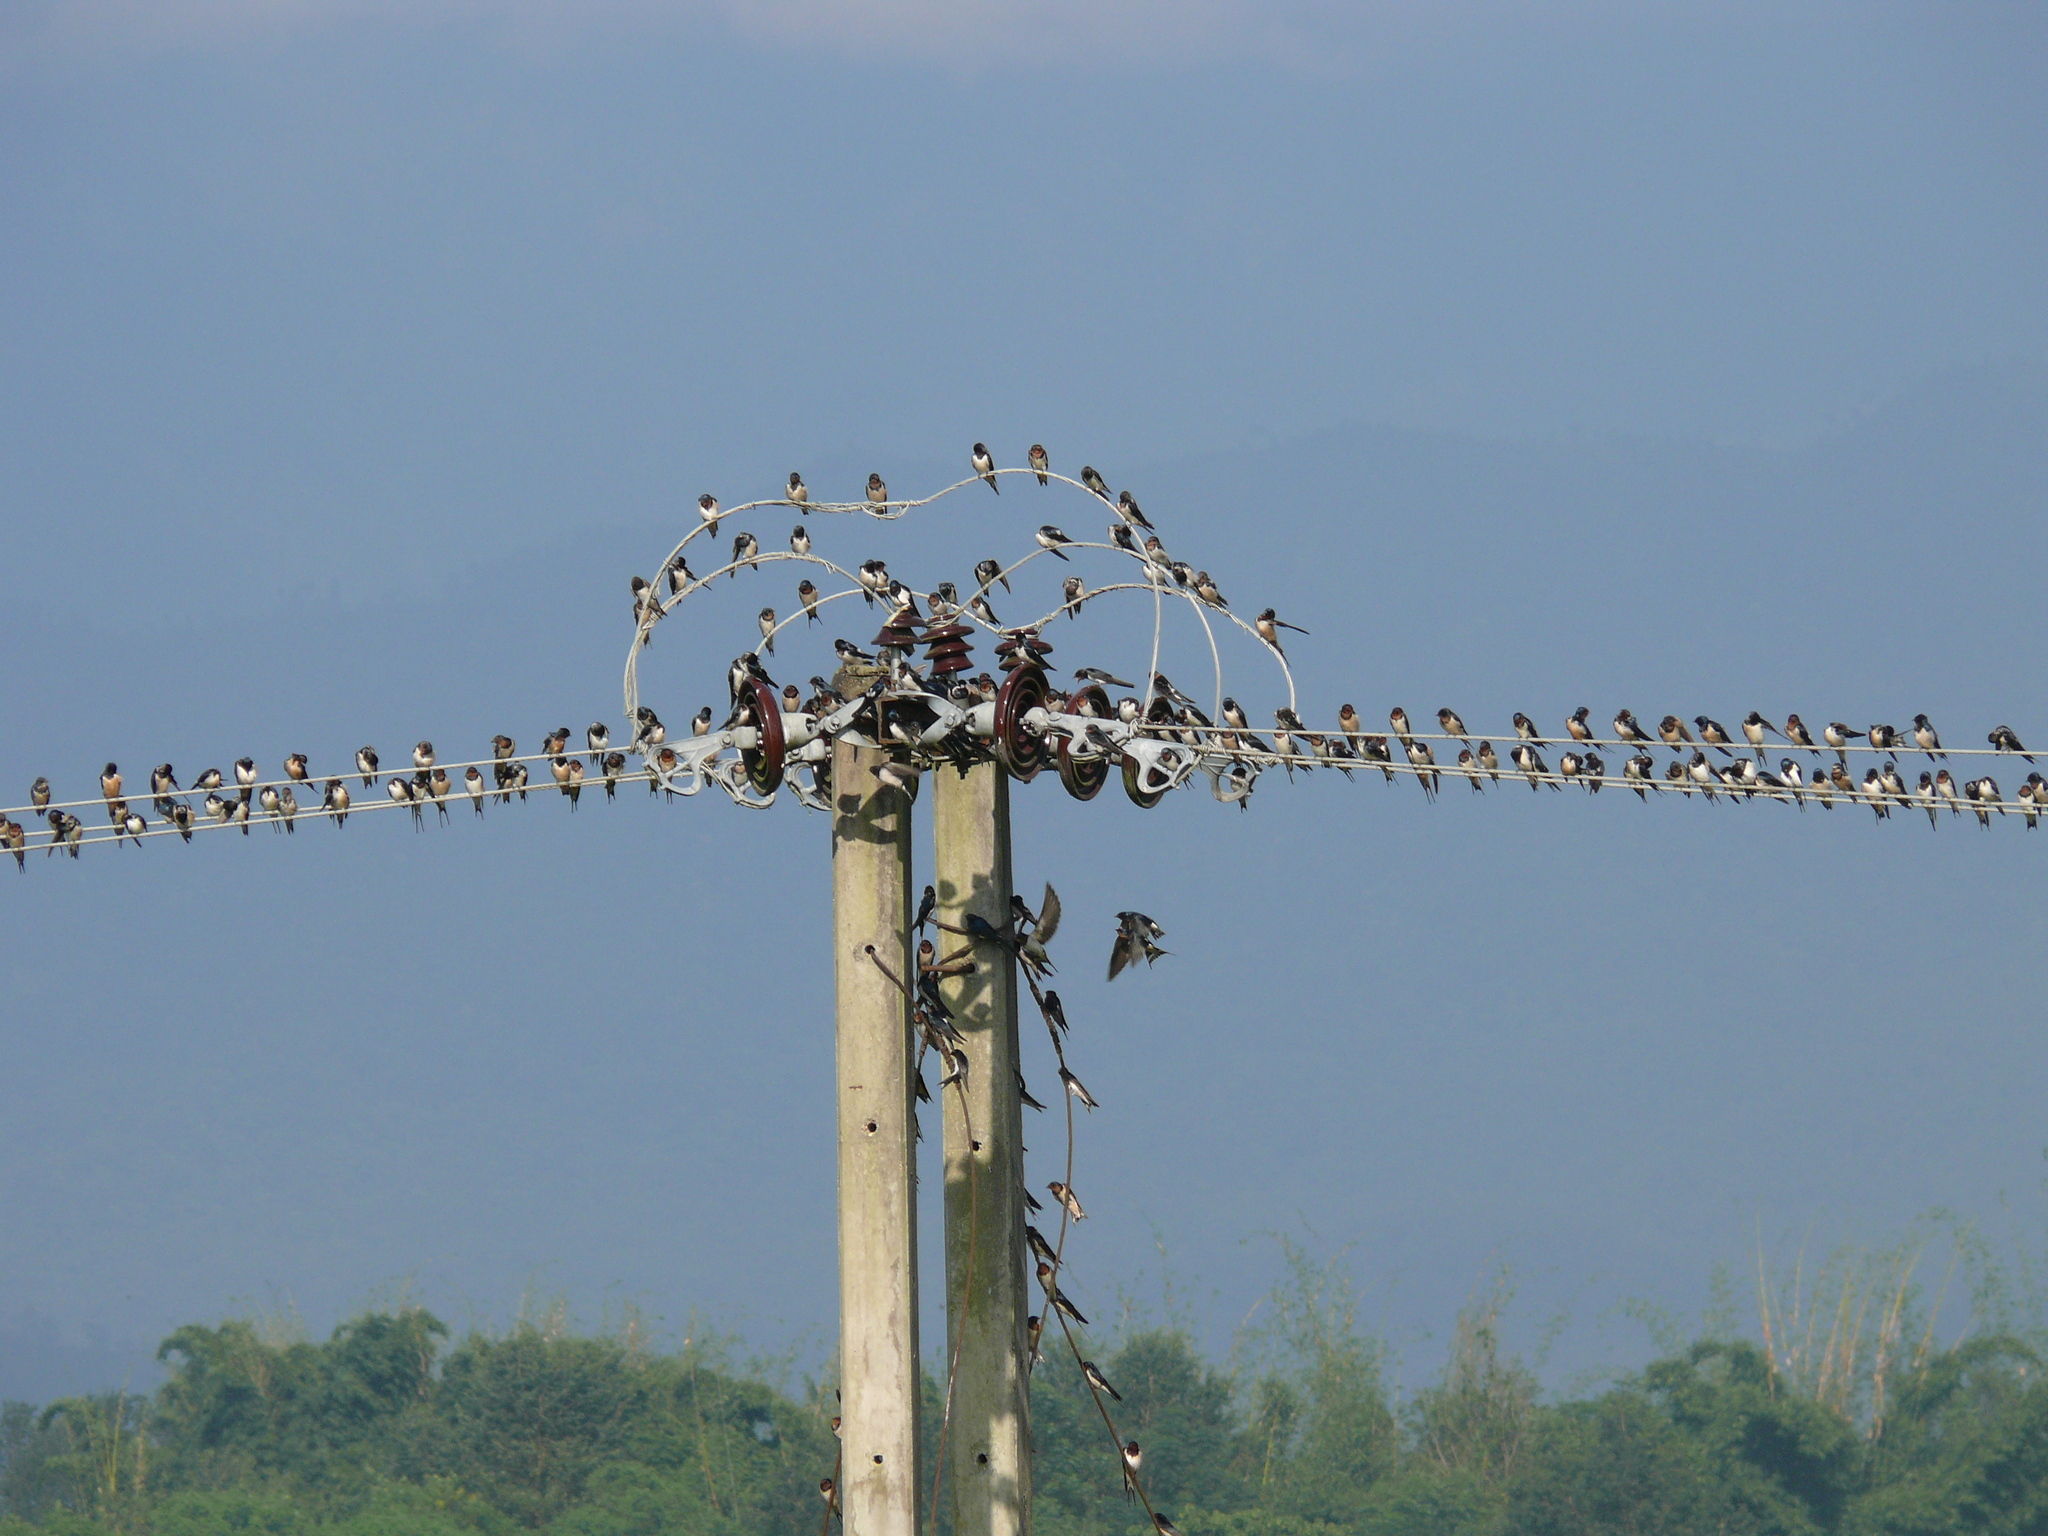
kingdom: Animalia
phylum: Chordata
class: Aves
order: Passeriformes
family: Hirundinidae
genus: Hirundo
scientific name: Hirundo rustica
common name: Barn swallow
